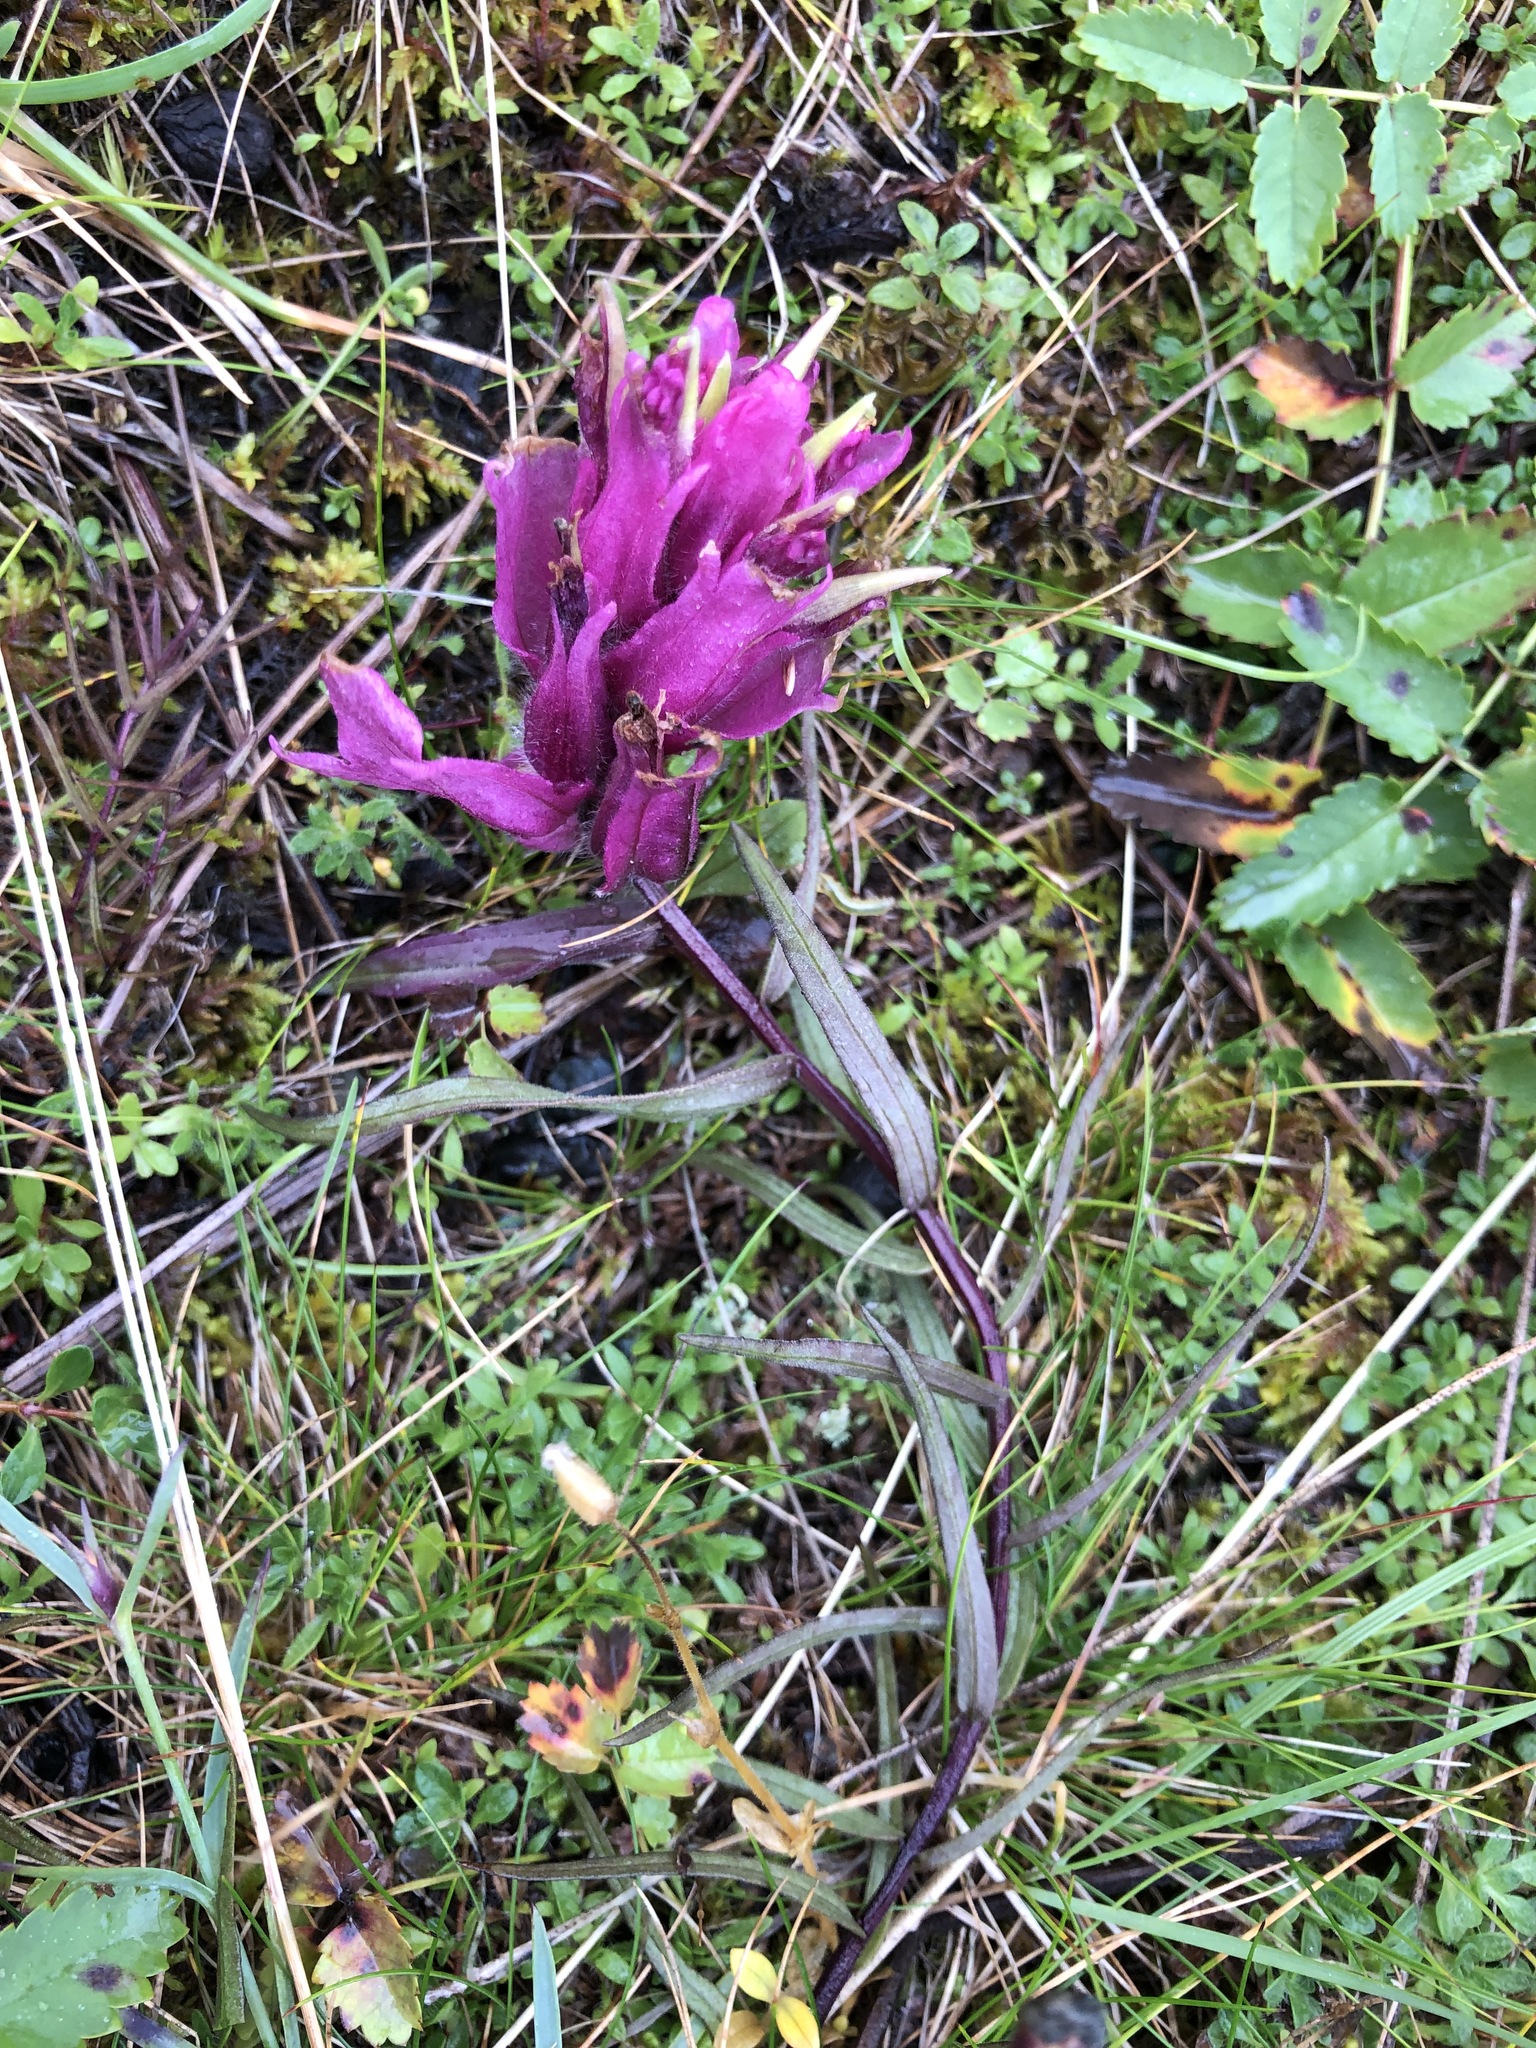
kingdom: Plantae
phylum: Tracheophyta
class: Magnoliopsida
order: Lamiales
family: Orobanchaceae
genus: Castilleja
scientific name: Castilleja arctica
